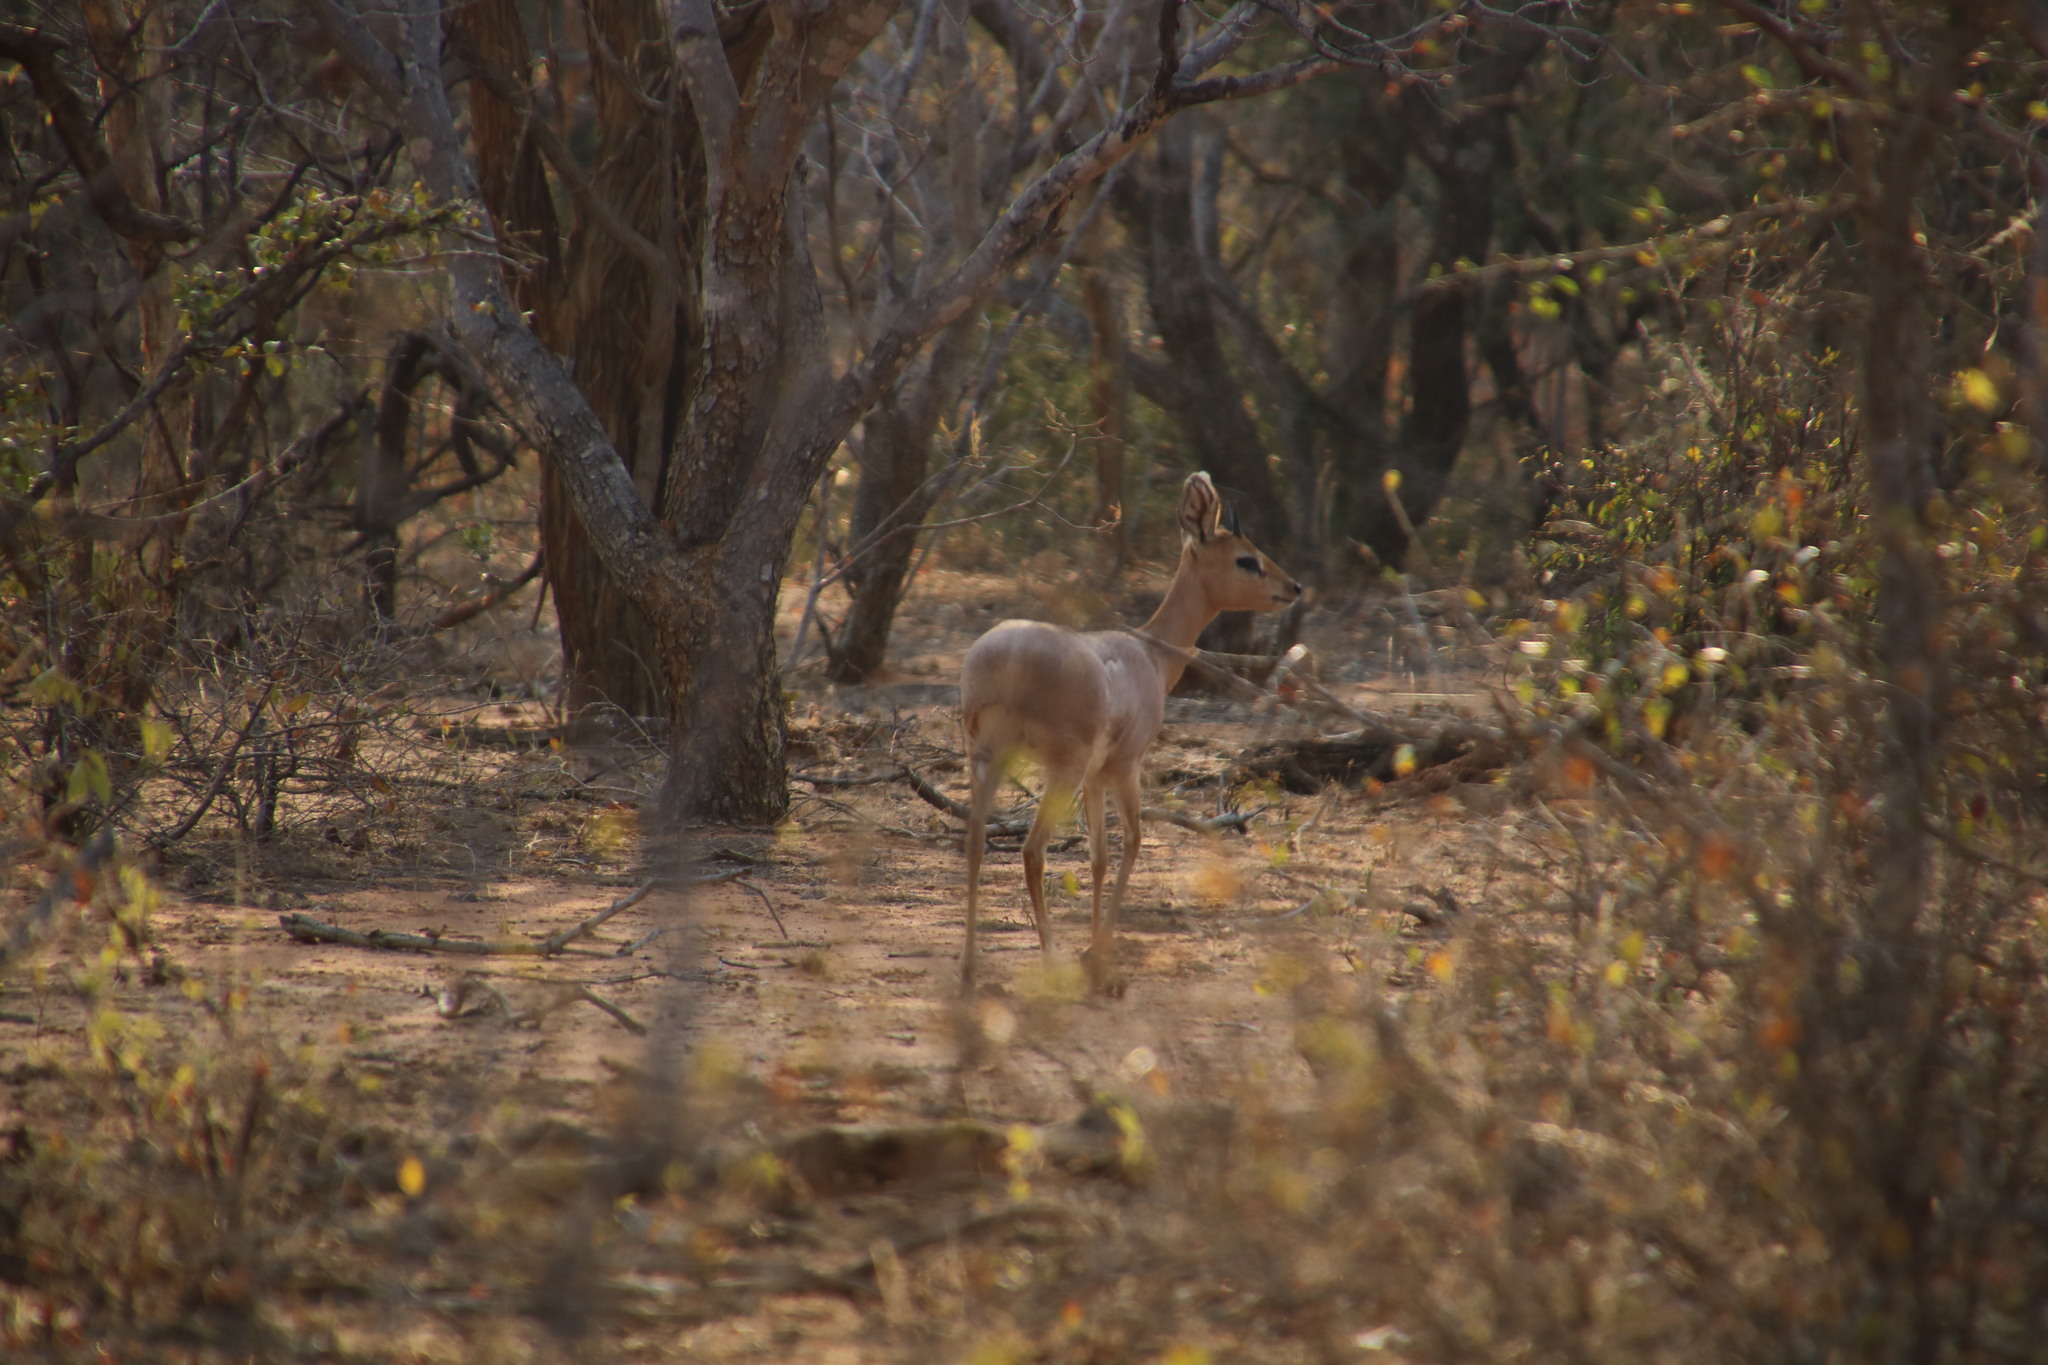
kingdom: Animalia
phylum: Chordata
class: Mammalia
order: Artiodactyla
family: Bovidae
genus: Raphicerus
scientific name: Raphicerus campestris
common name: Steenbok
